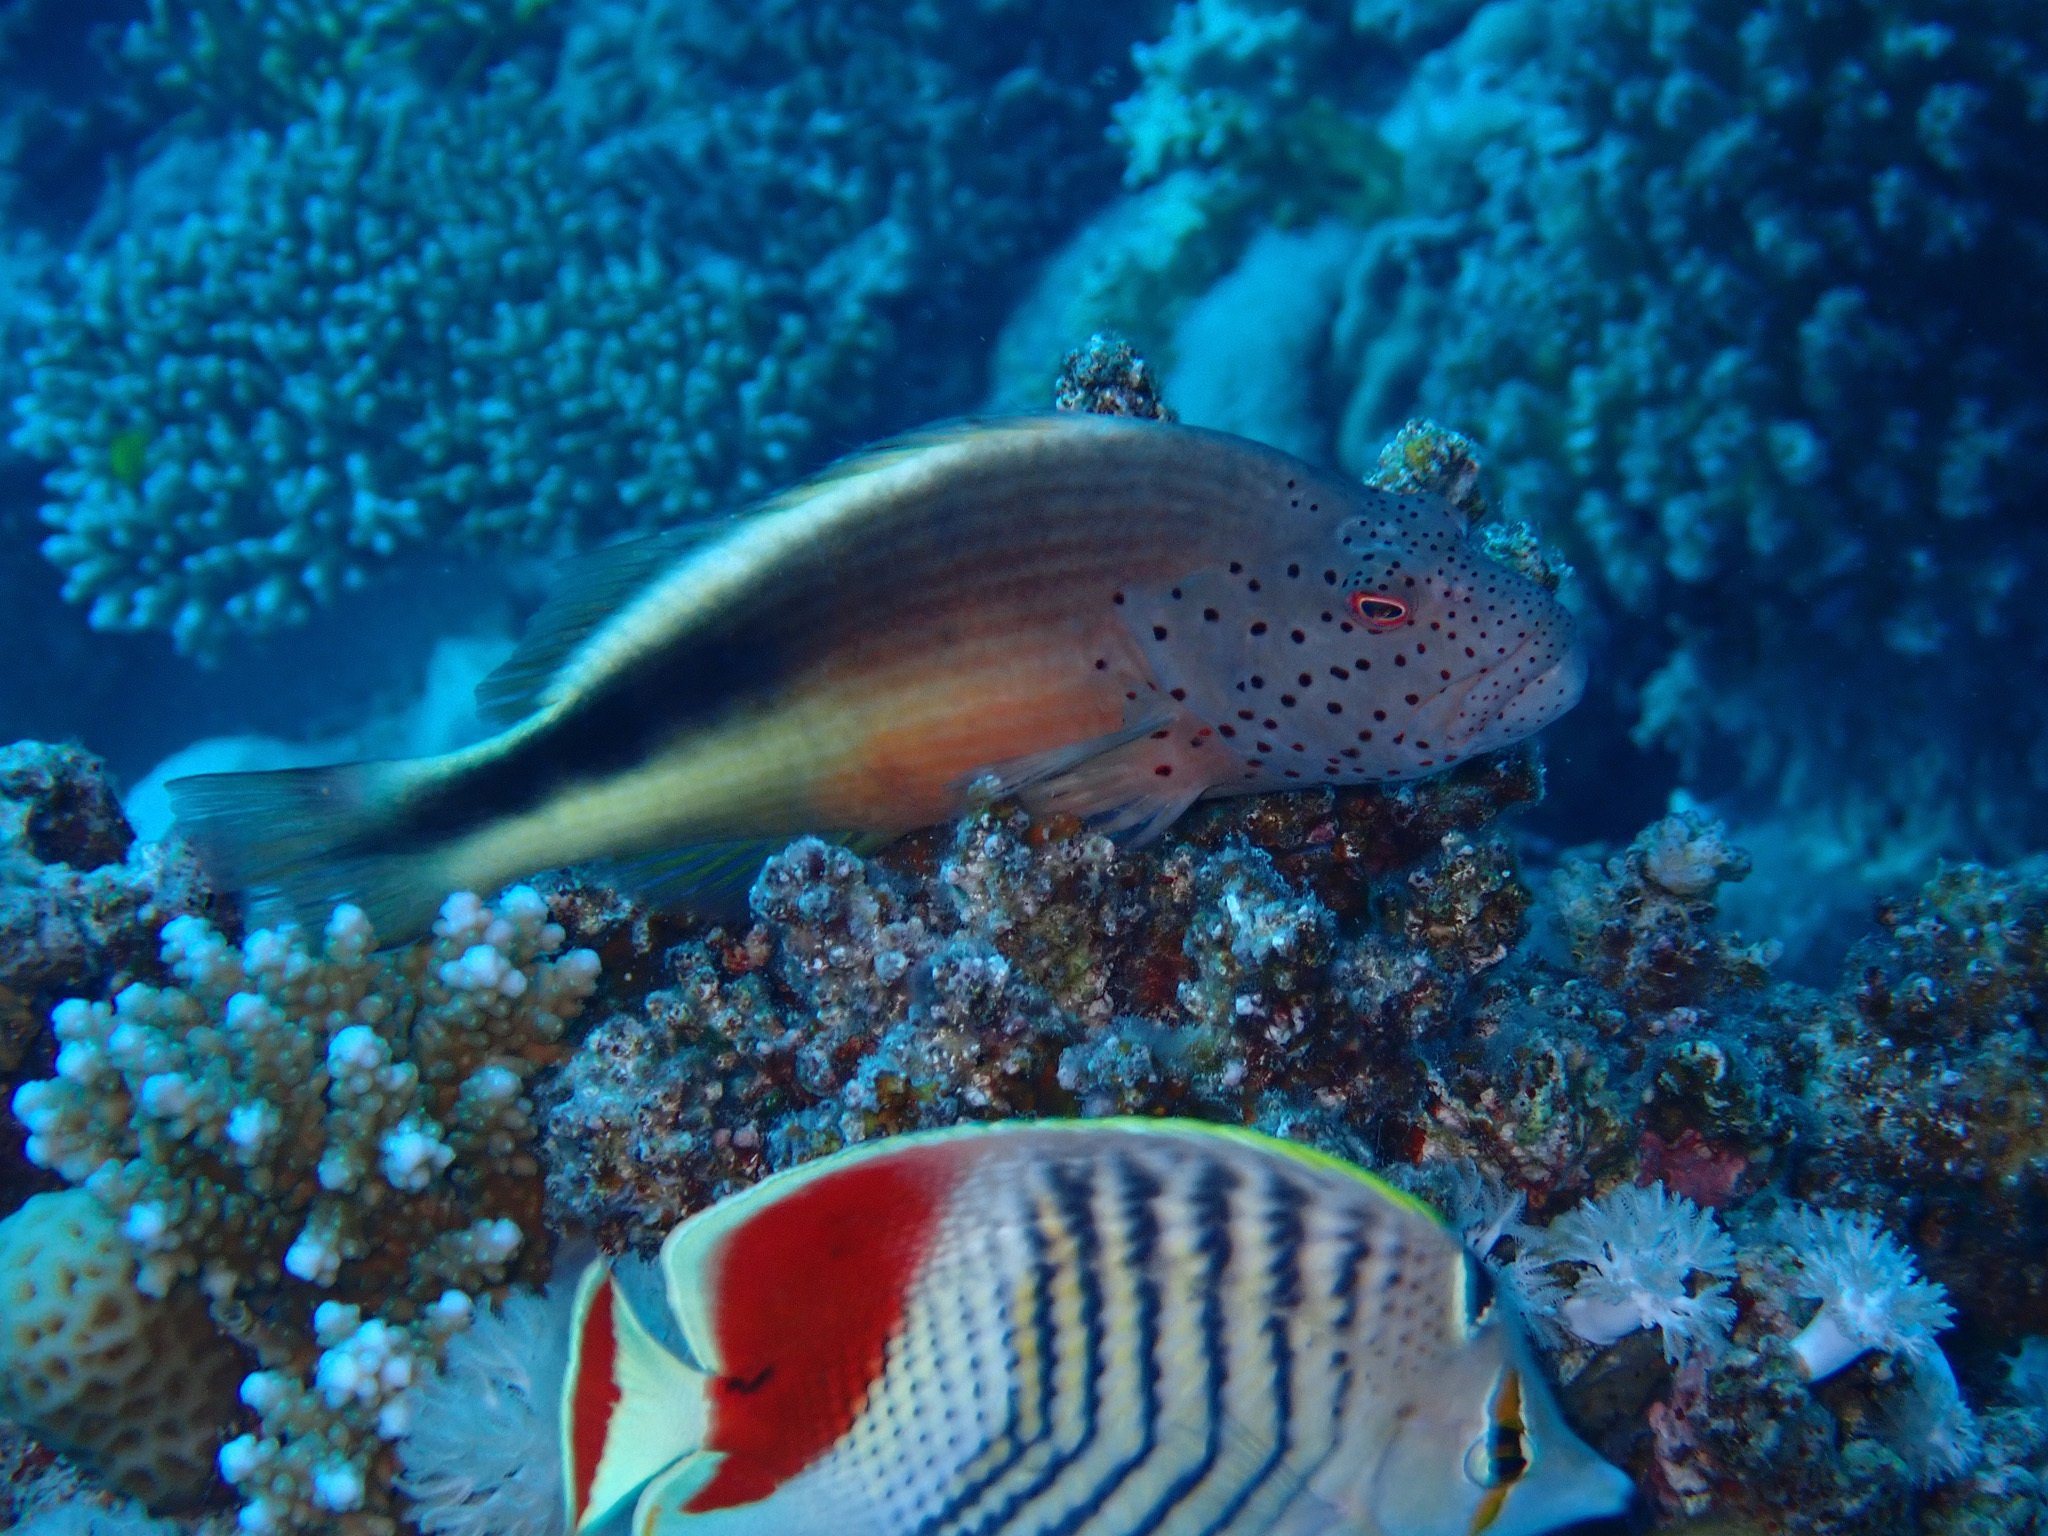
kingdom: Animalia
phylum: Chordata
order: Perciformes
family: Cirrhitidae
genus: Paracirrhites
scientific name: Paracirrhites forsteri
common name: Freckled hawkfish
